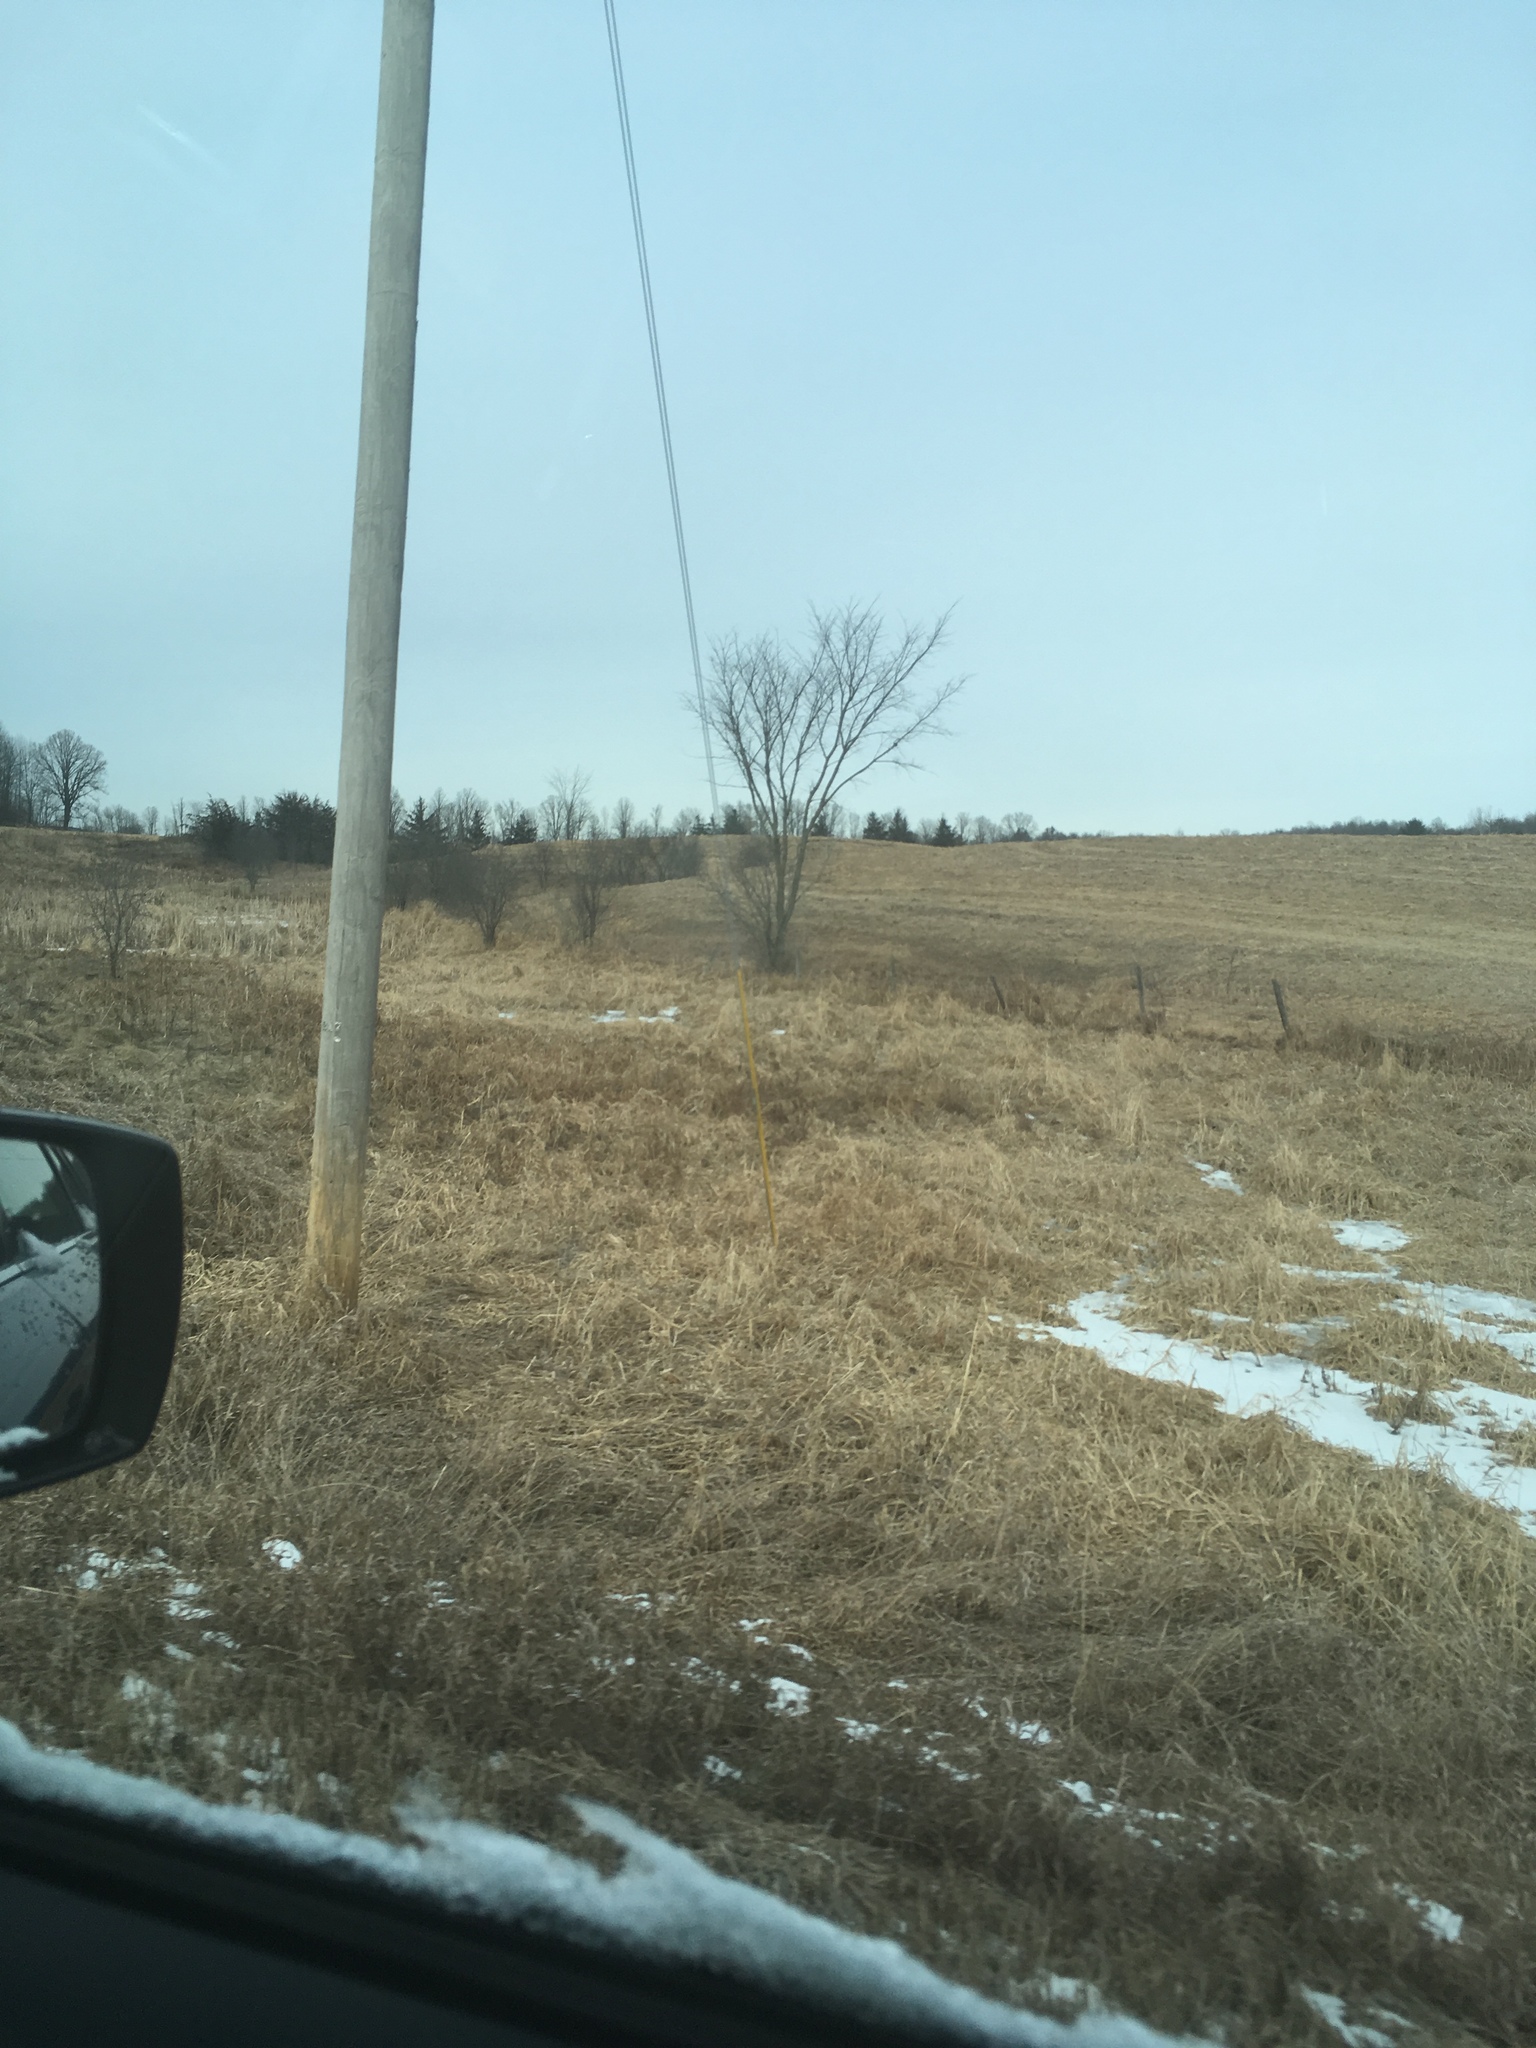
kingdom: Plantae
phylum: Tracheophyta
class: Magnoliopsida
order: Rosales
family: Ulmaceae
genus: Ulmus
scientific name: Ulmus americana
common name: American elm
